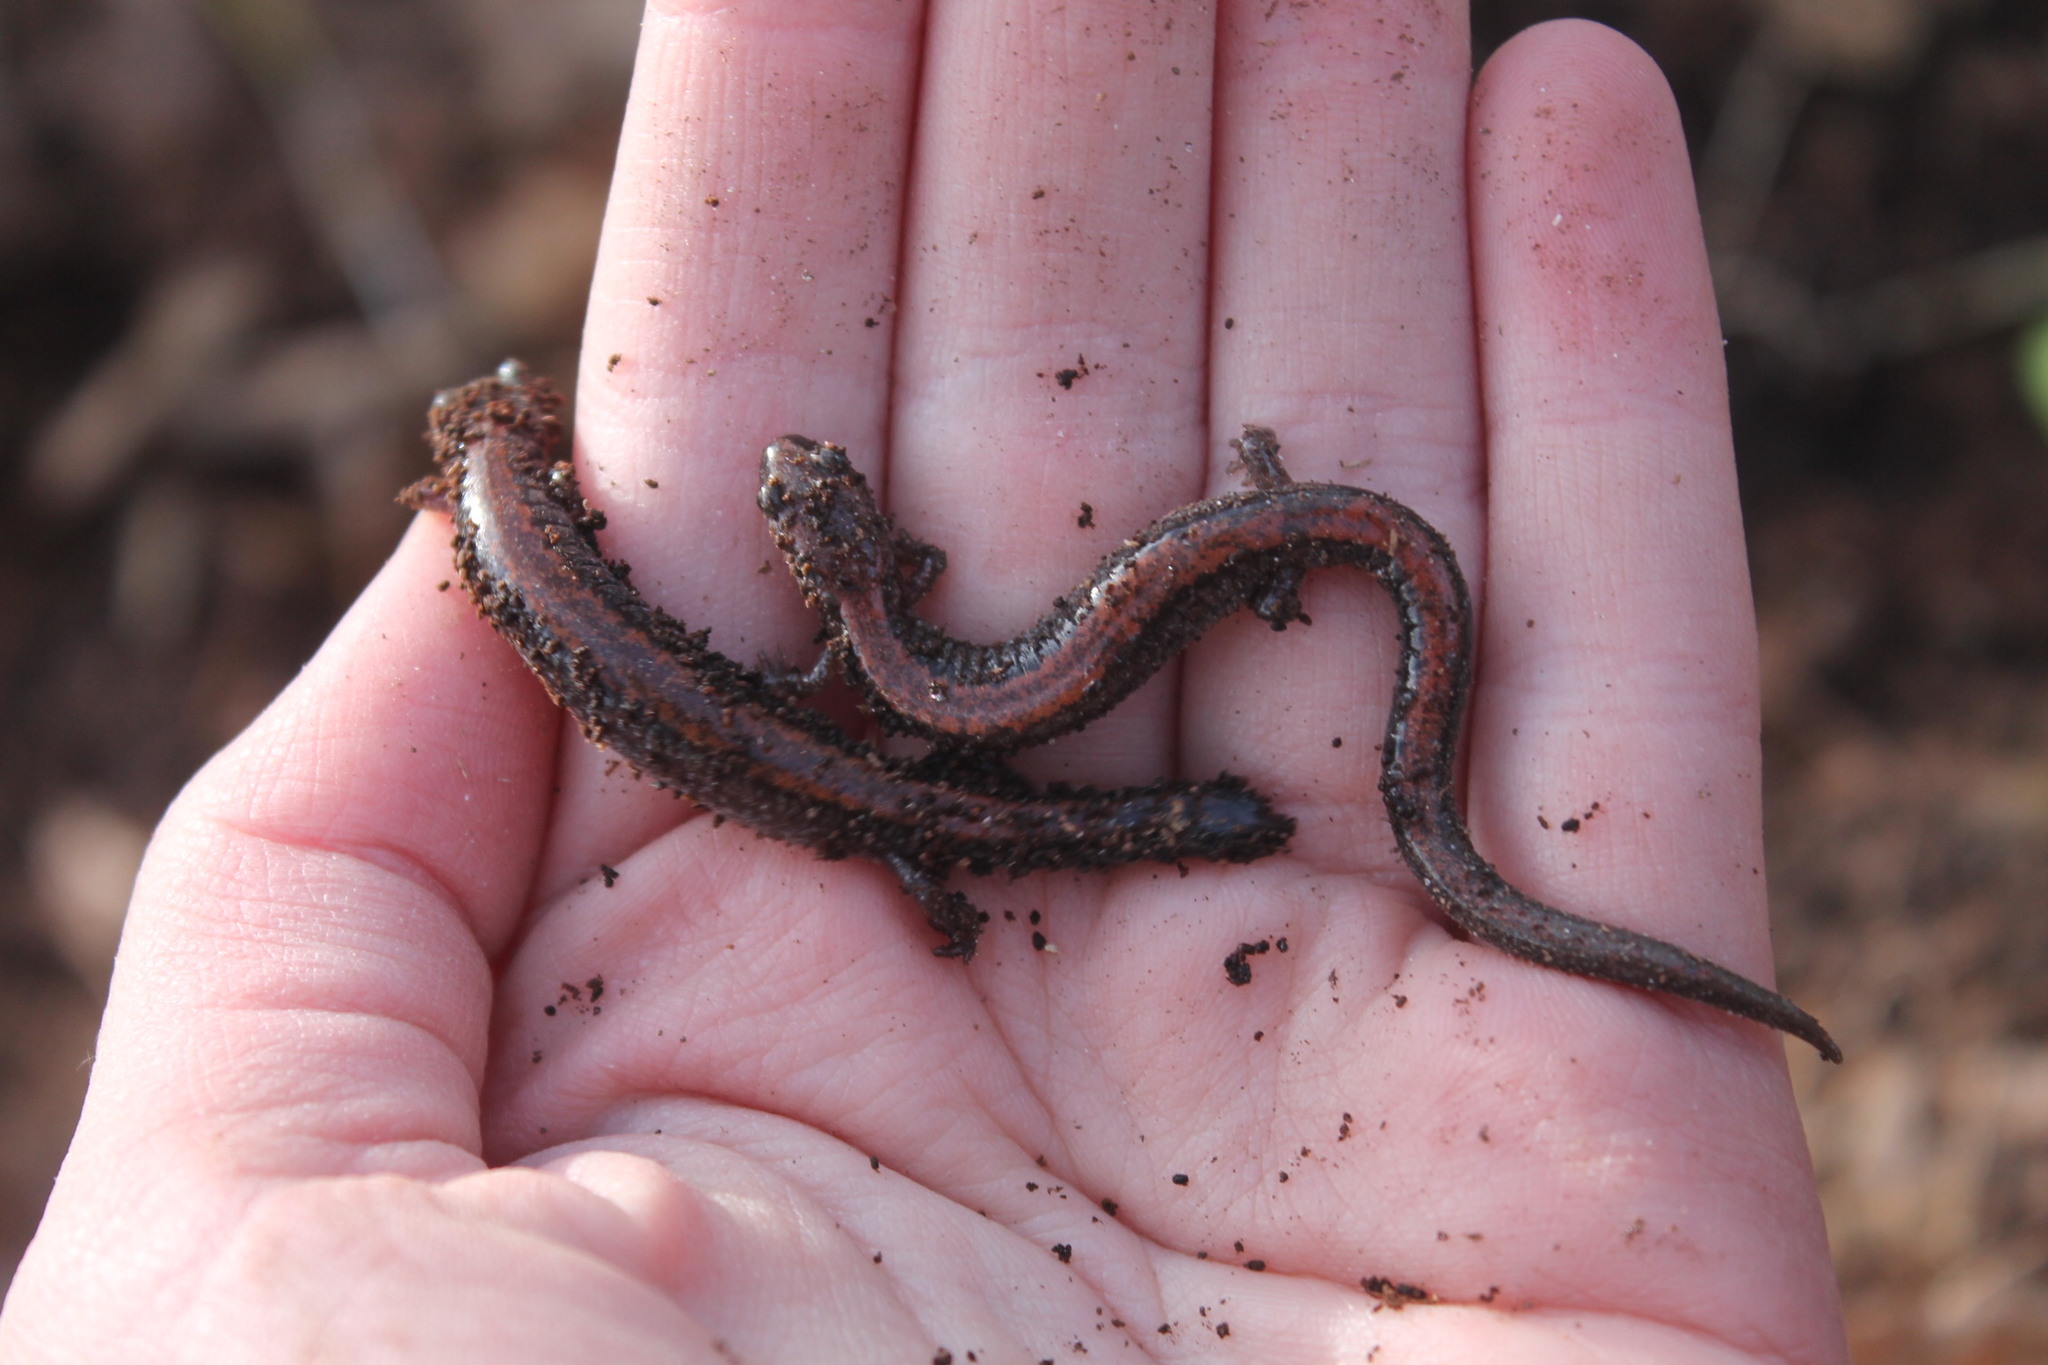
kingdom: Animalia
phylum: Chordata
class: Amphibia
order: Caudata
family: Plethodontidae
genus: Plethodon
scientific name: Plethodon cinereus
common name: Redback salamander
